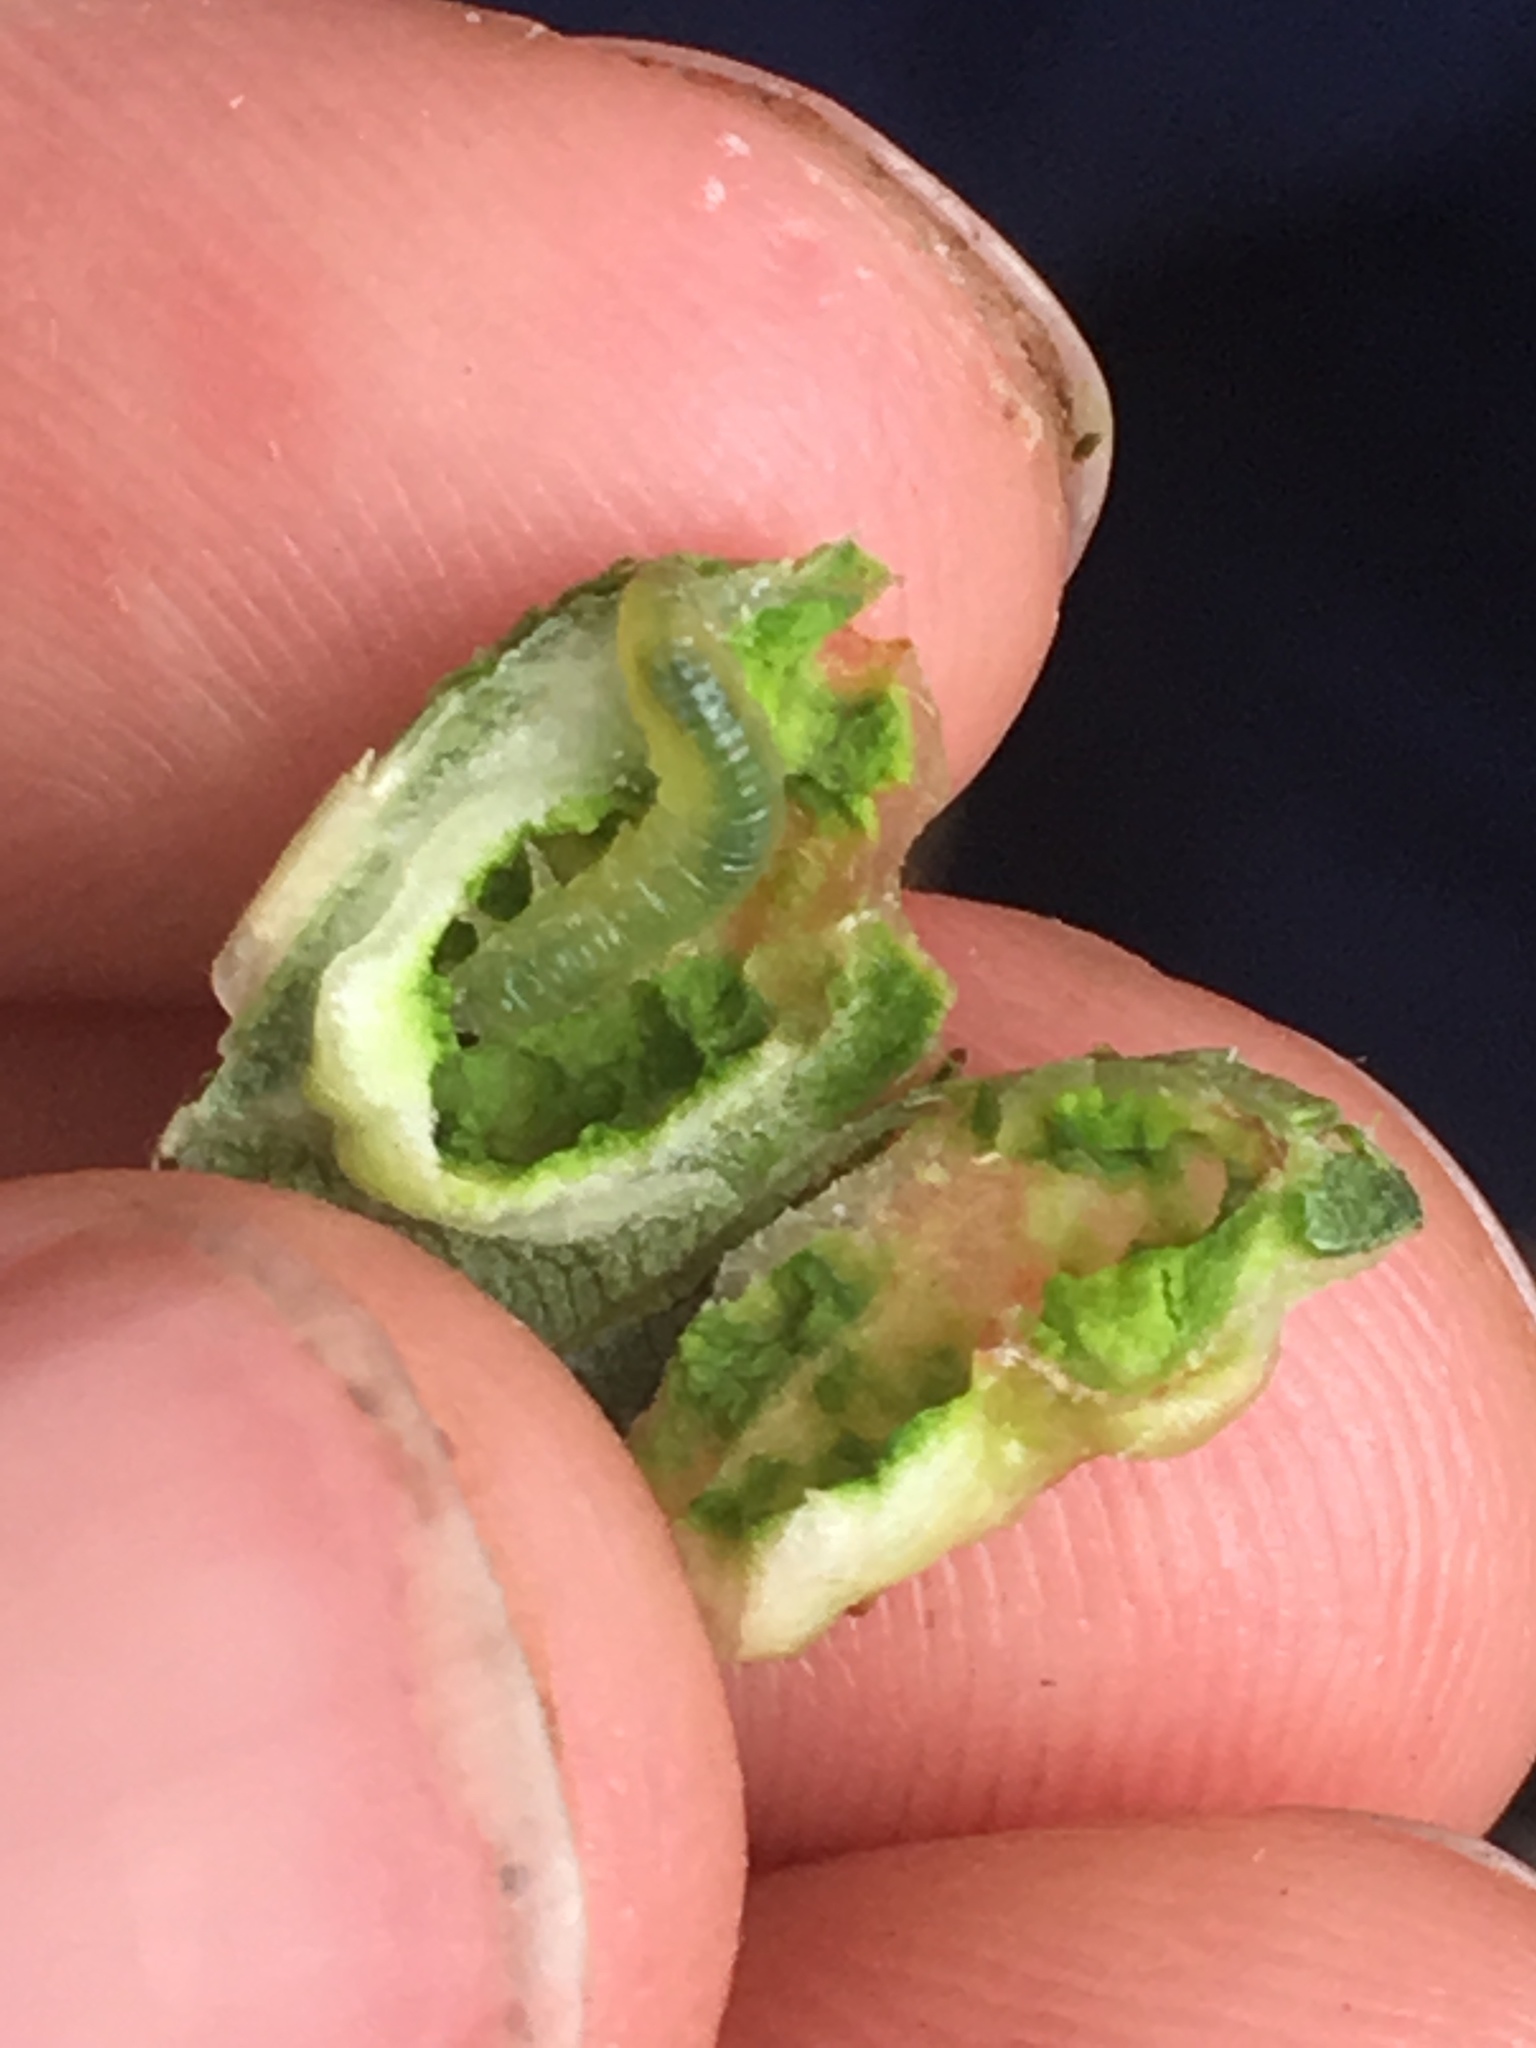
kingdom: Animalia
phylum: Arthropoda
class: Insecta
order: Hymenoptera
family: Tenthredinidae
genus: Pontania
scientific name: Pontania proxima
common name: Common sawfly
